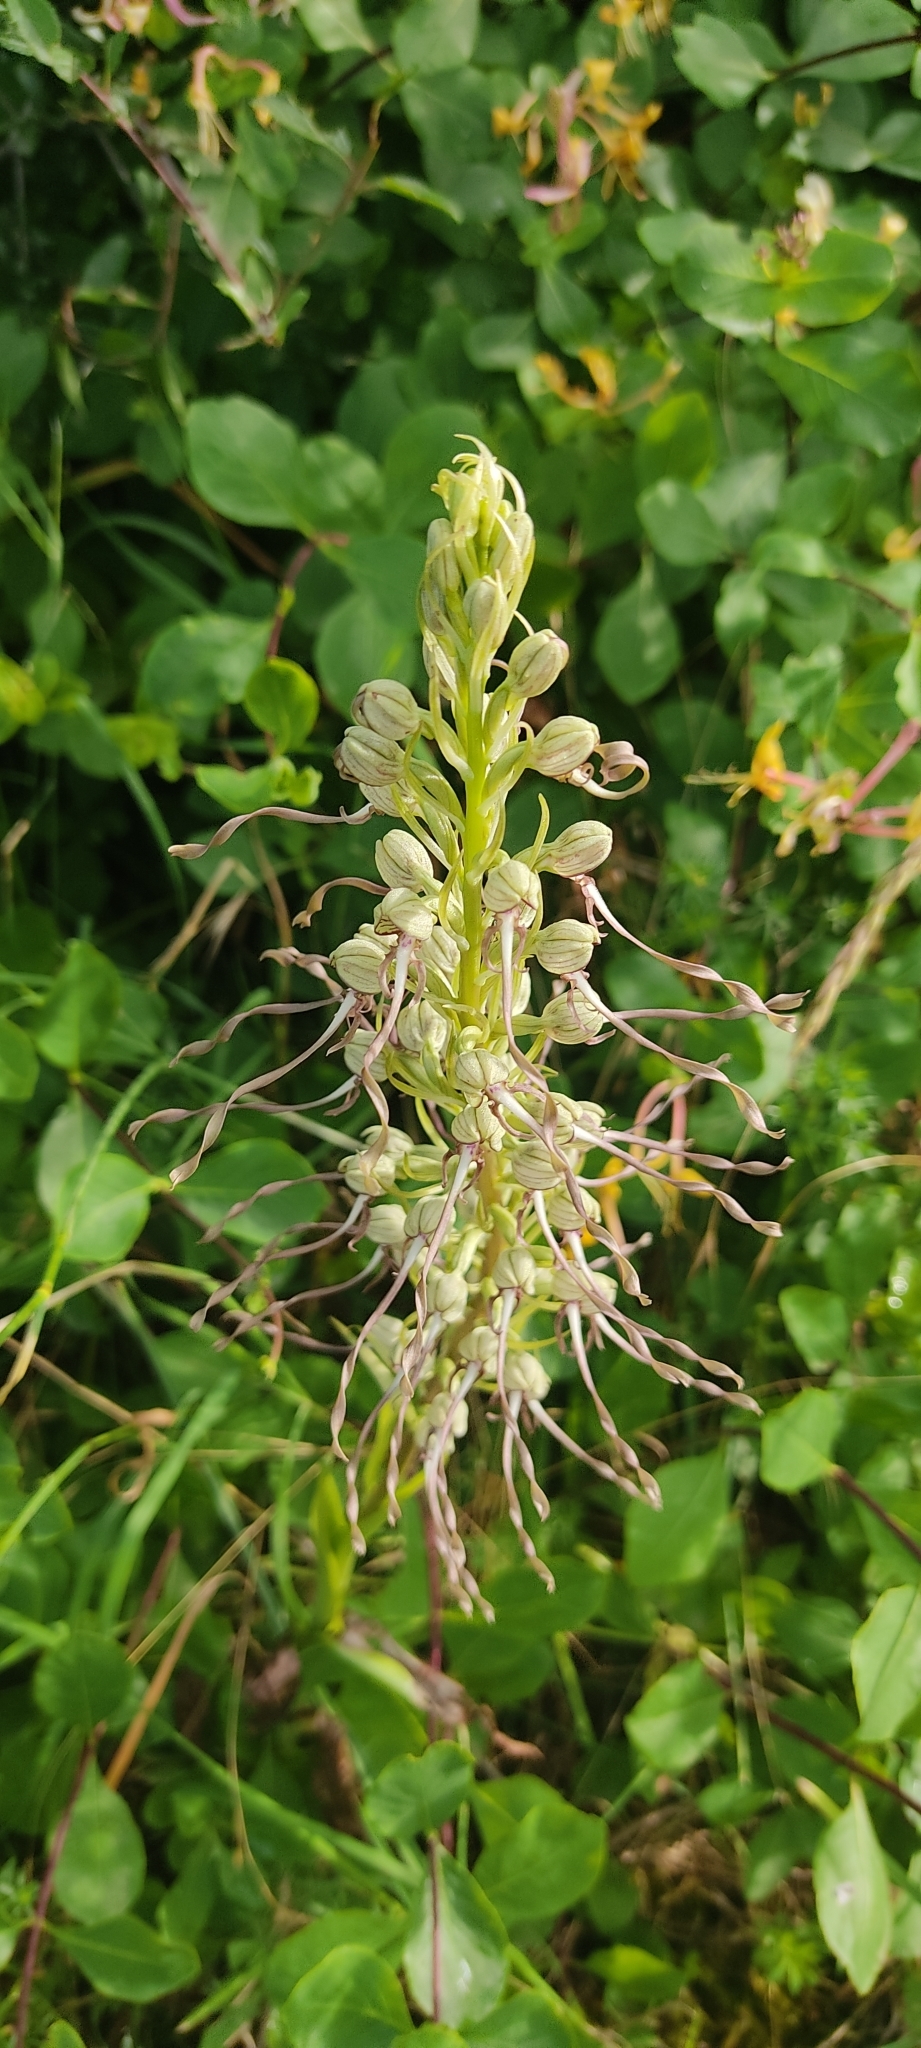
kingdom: Plantae
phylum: Tracheophyta
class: Liliopsida
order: Asparagales
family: Orchidaceae
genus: Himantoglossum
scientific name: Himantoglossum hircinum
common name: Lizard orchid
